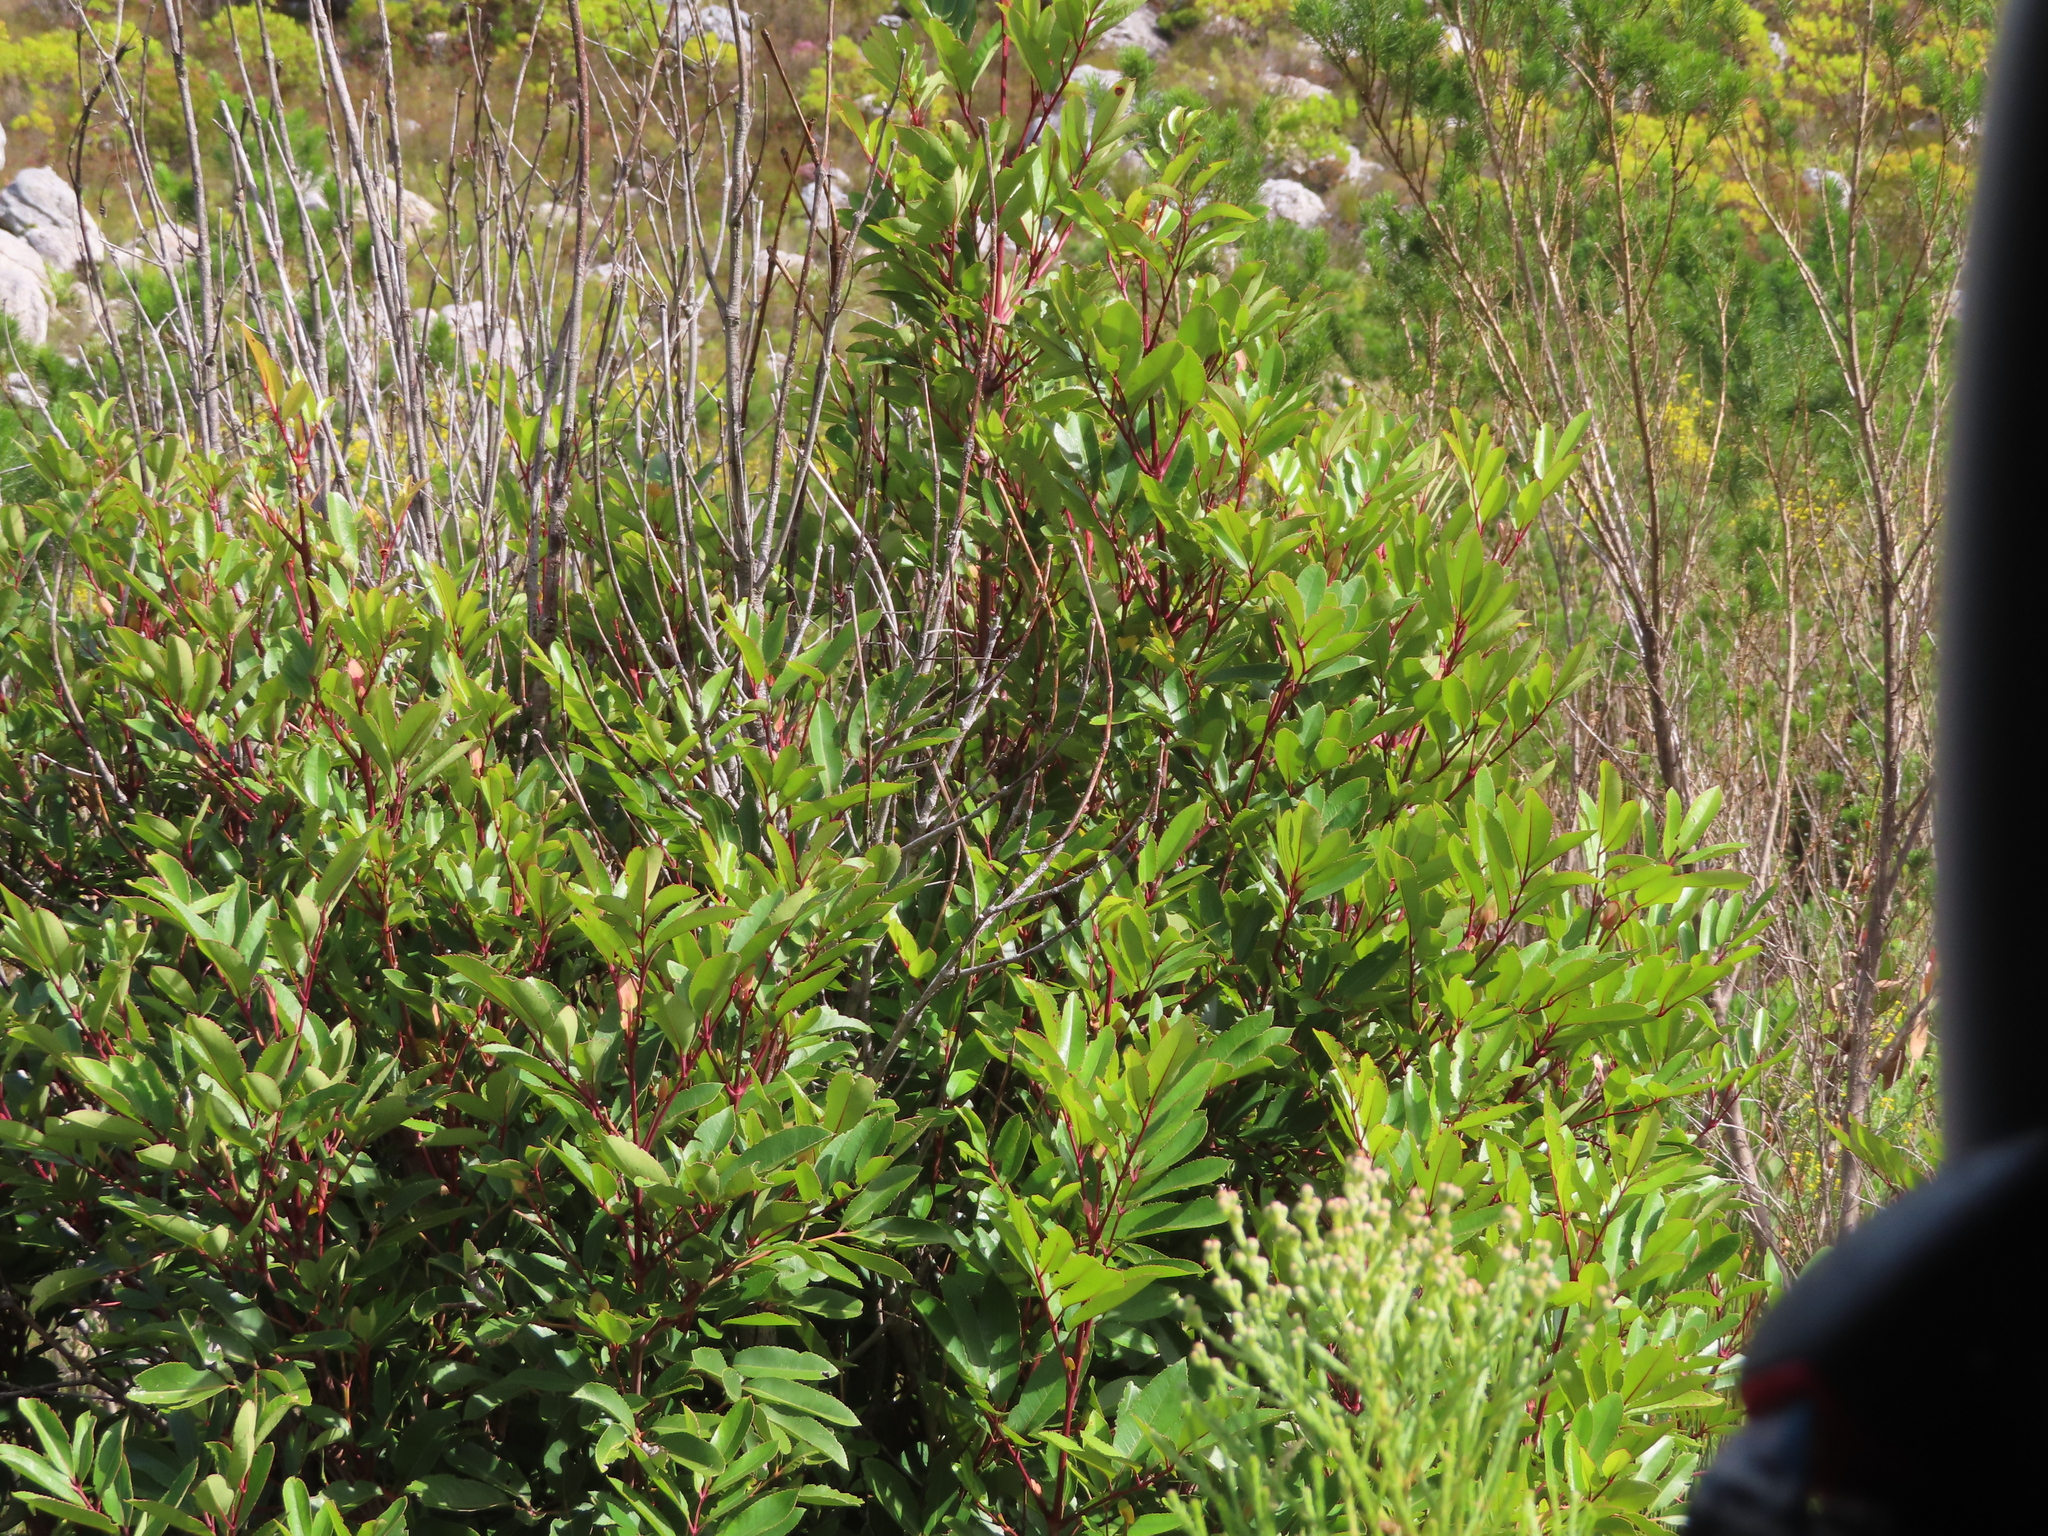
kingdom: Plantae
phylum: Tracheophyta
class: Magnoliopsida
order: Oxalidales
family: Cunoniaceae
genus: Cunonia
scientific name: Cunonia capensis
